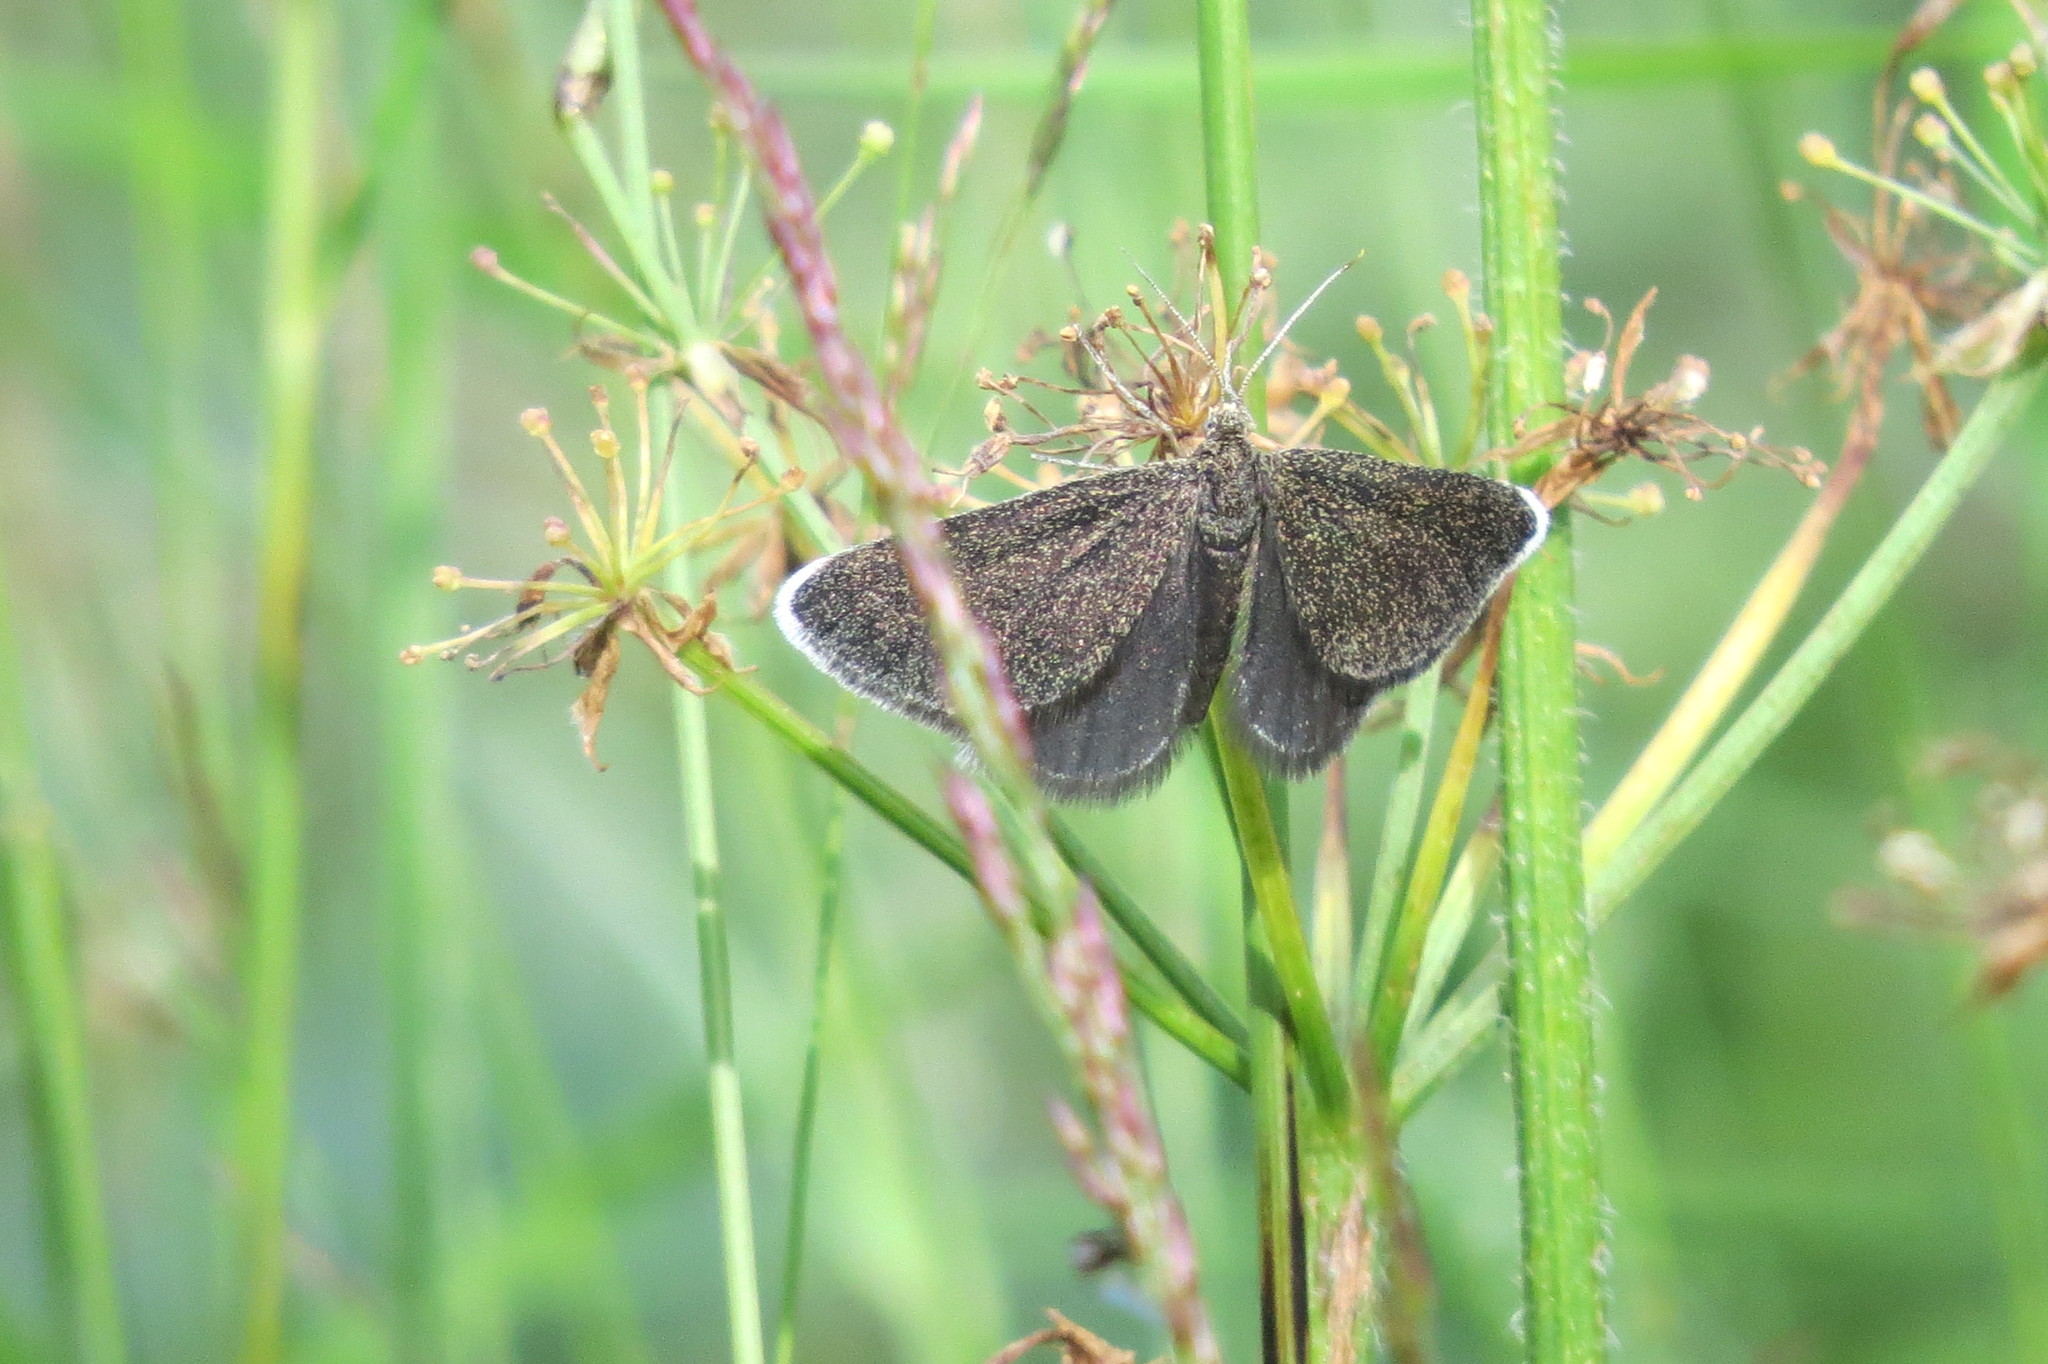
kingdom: Animalia
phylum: Arthropoda
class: Insecta
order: Lepidoptera
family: Geometridae
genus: Odezia
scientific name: Odezia atrata
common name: Chimney sweeper
